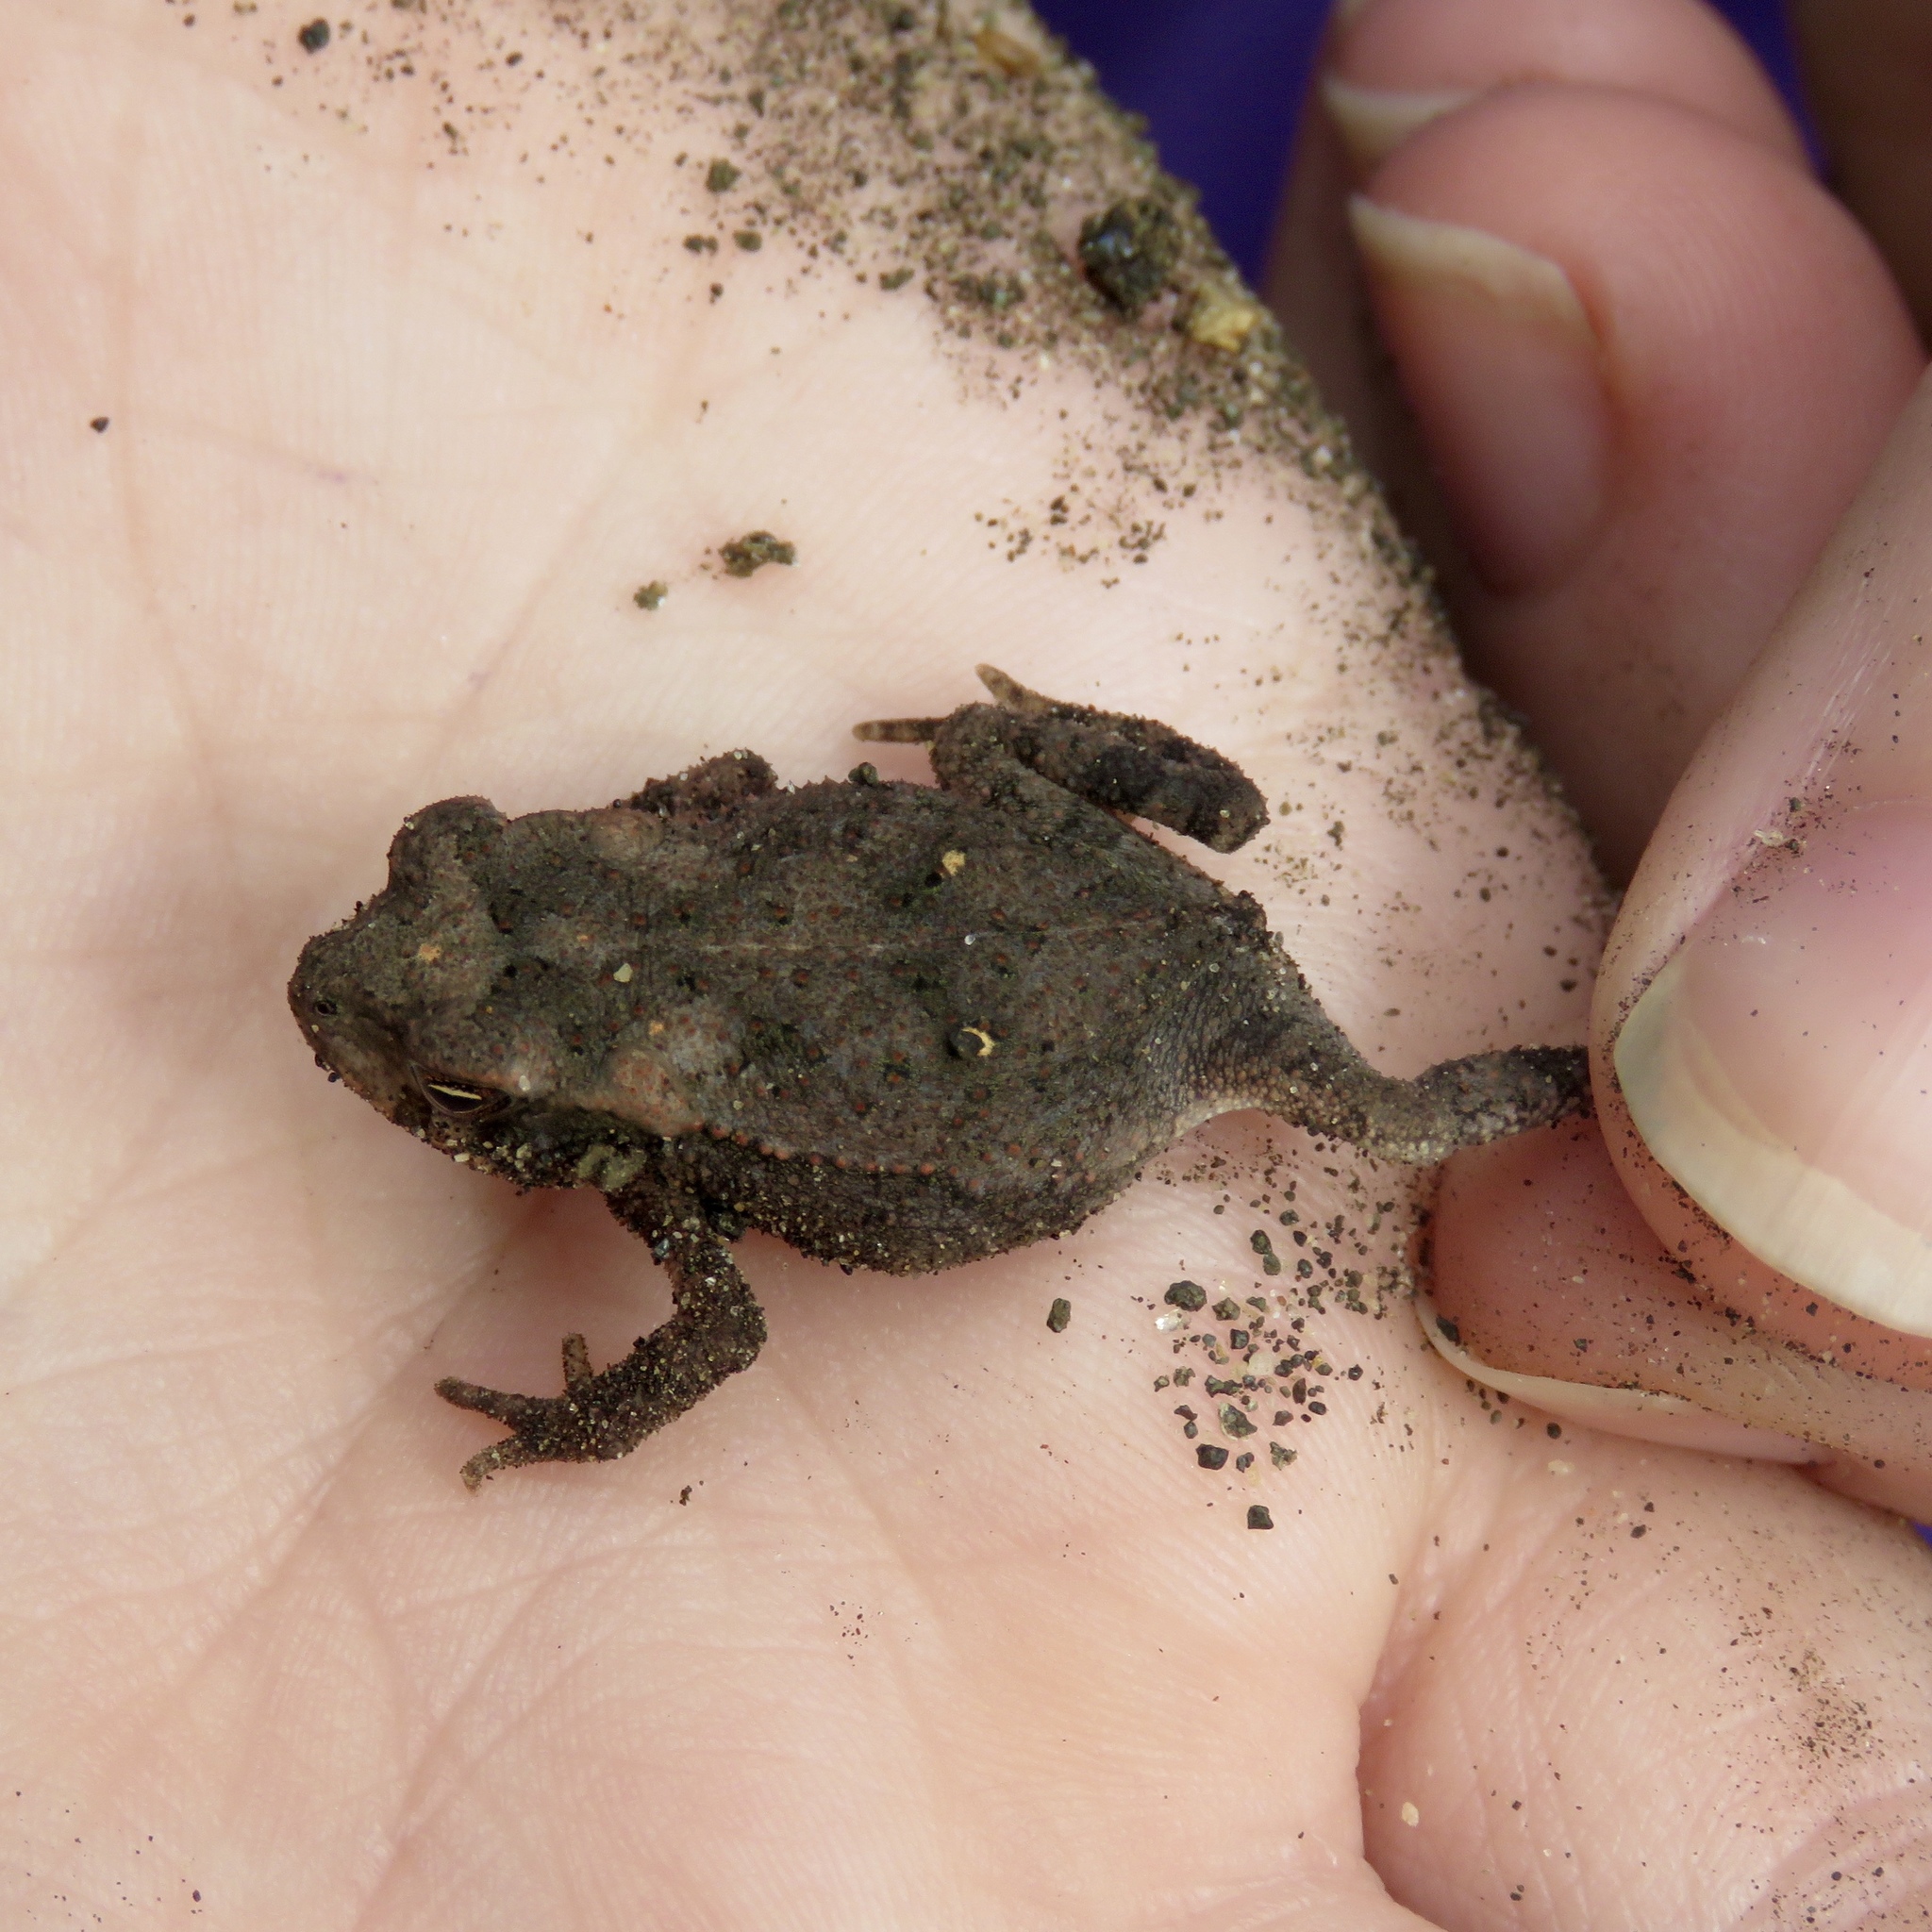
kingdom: Animalia
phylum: Chordata
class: Amphibia
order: Anura
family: Bufonidae
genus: Incilius
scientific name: Incilius nebulifer
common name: Gulf coast toad
